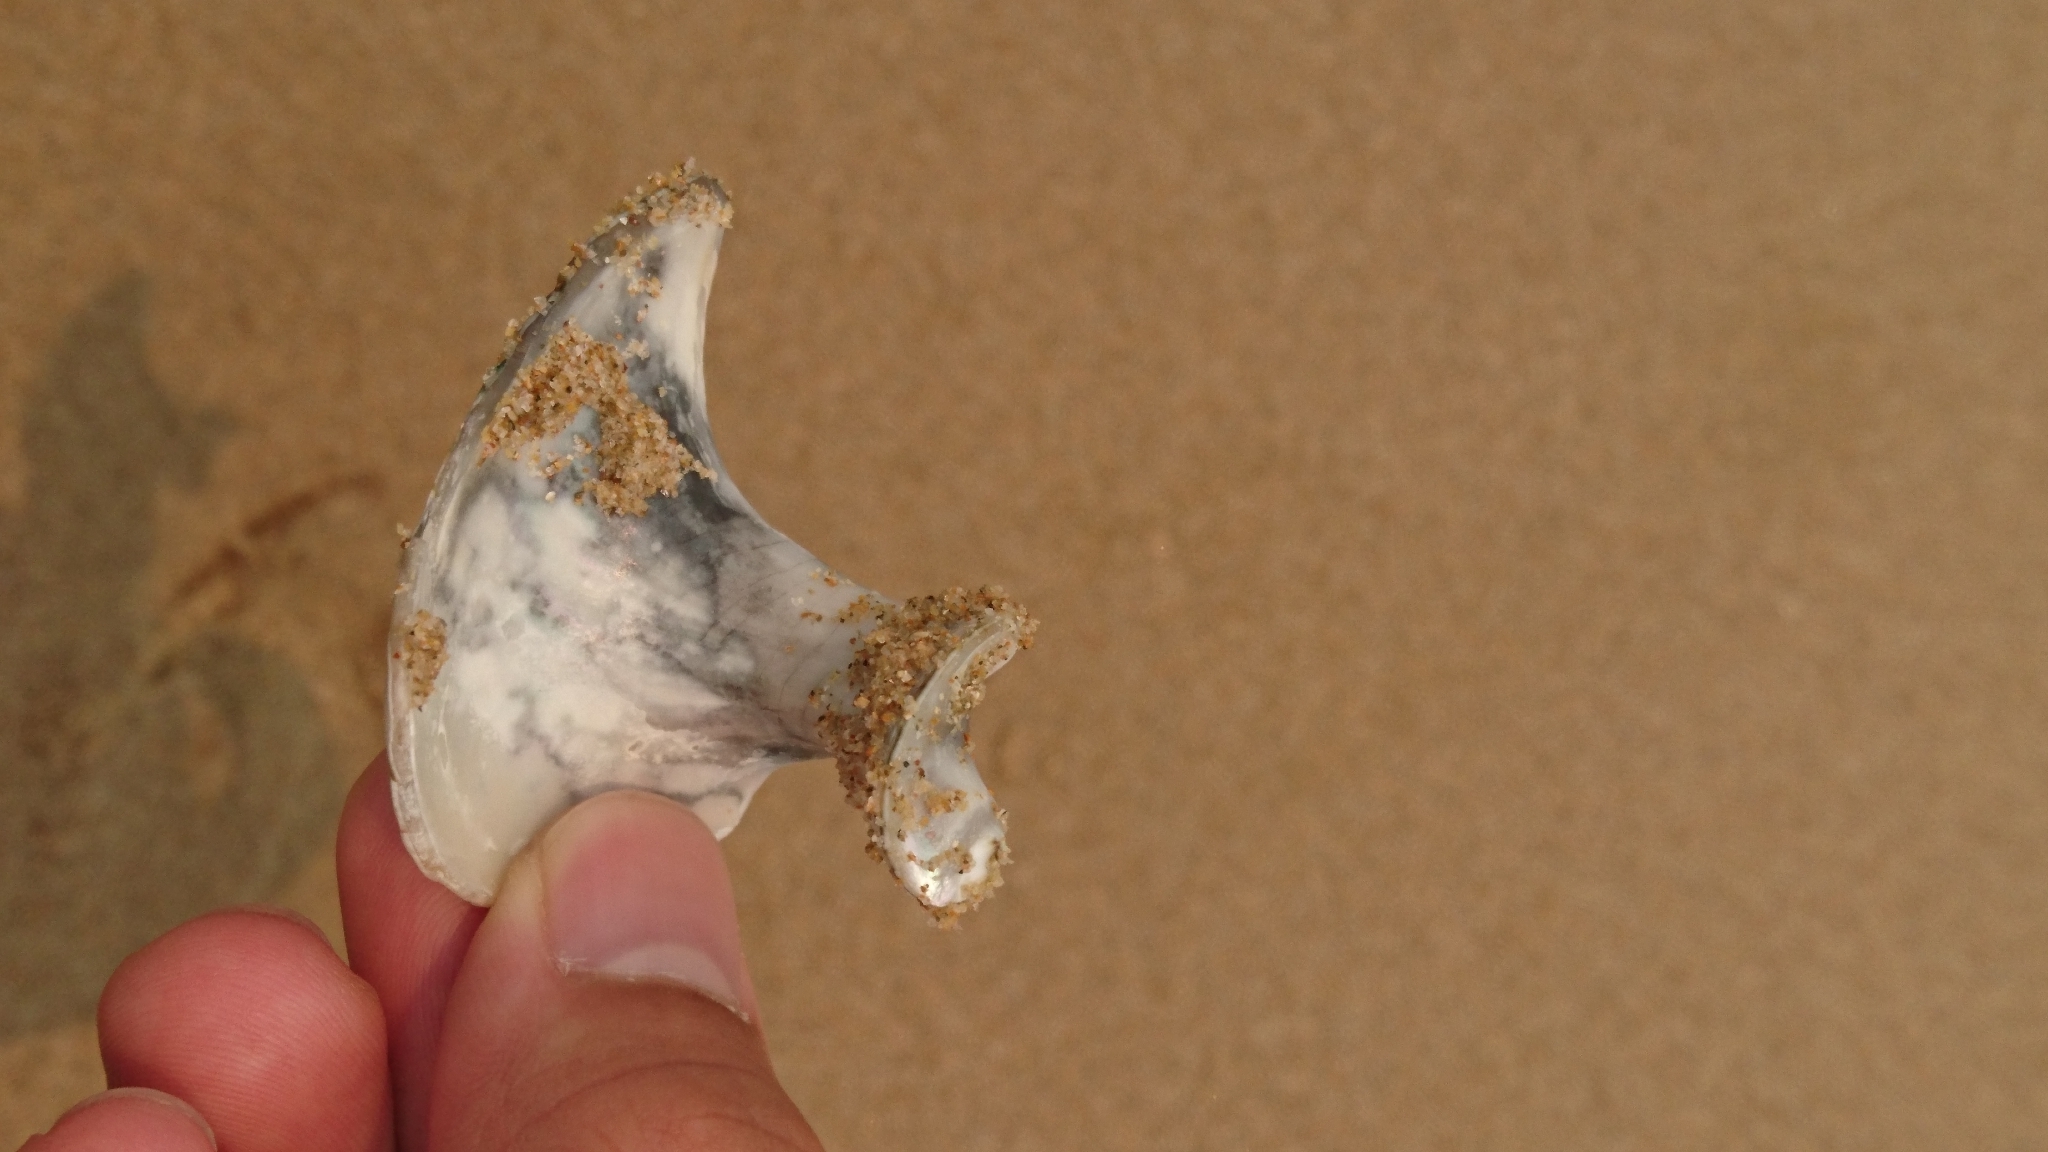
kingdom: Animalia
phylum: Mollusca
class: Gastropoda
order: Trochida
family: Turbinidae
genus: Turbo
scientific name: Turbo militaris
